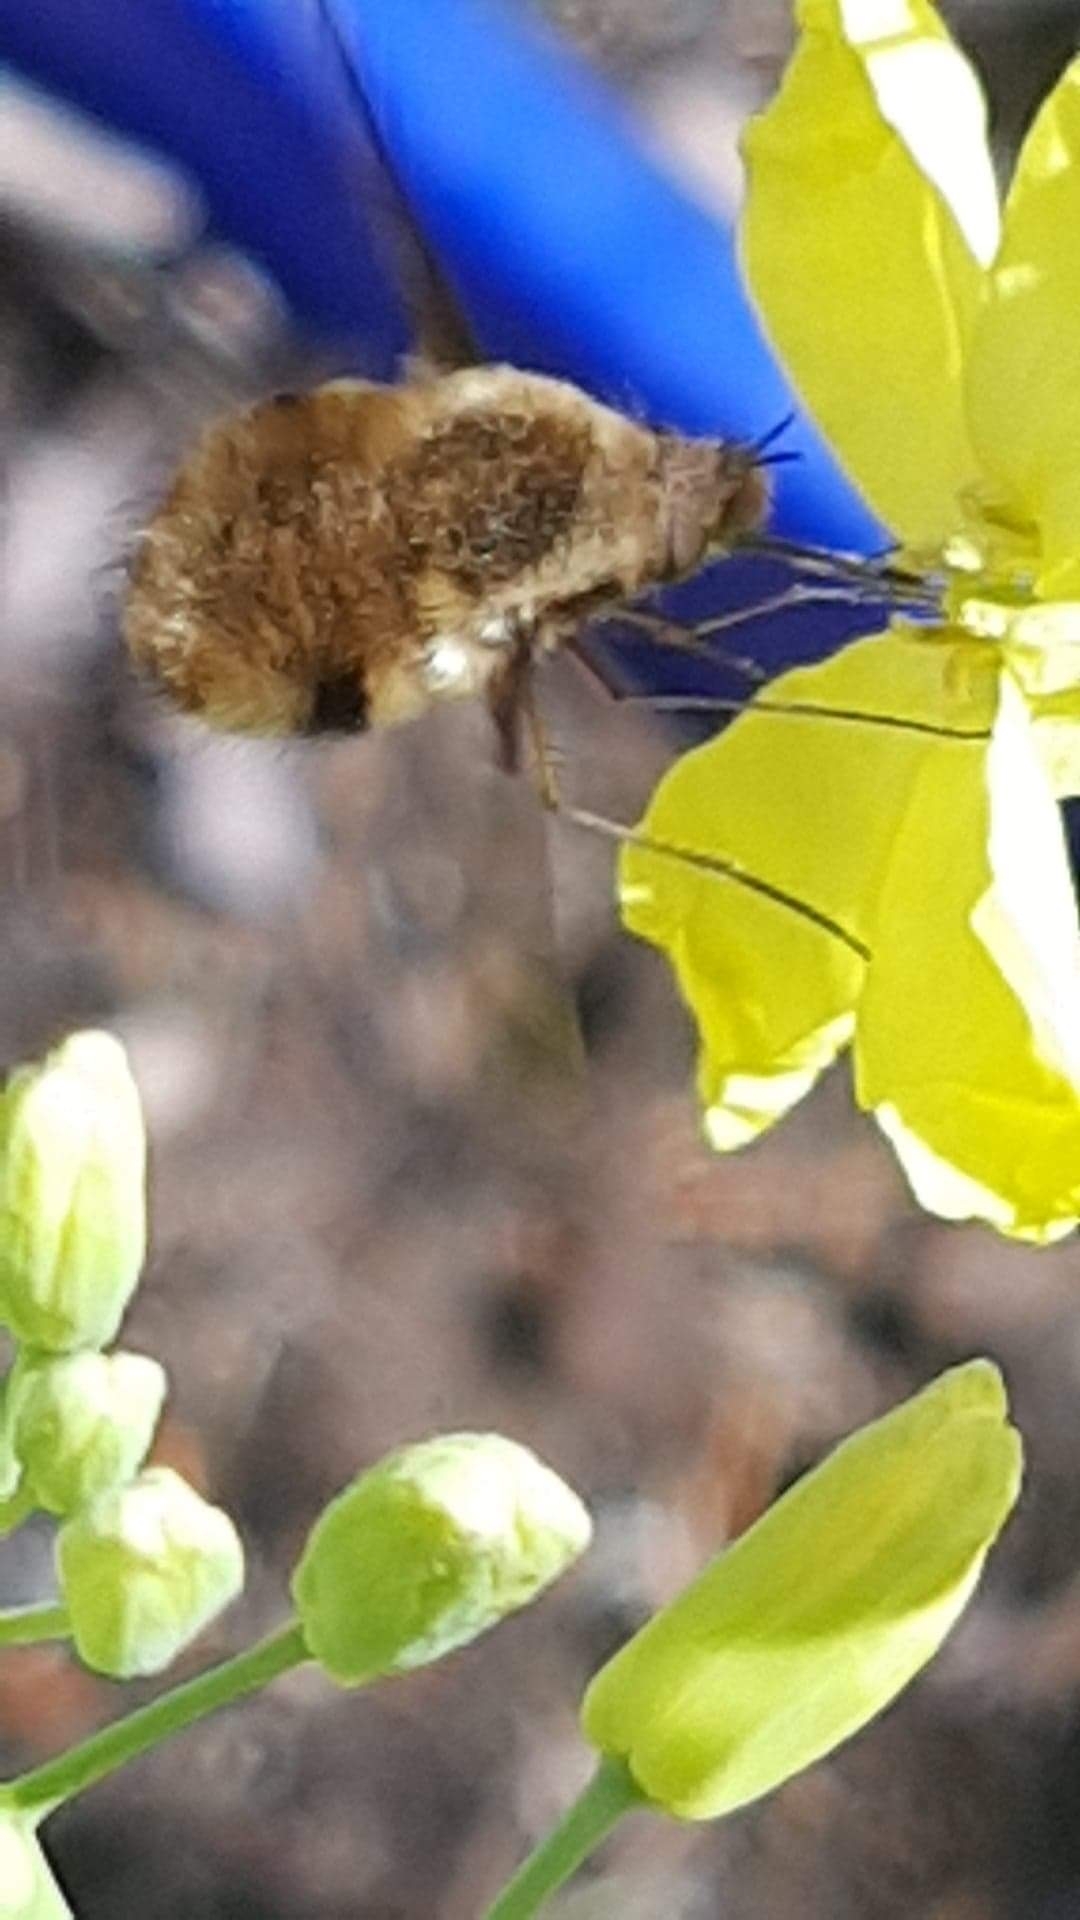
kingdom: Animalia
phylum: Arthropoda
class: Insecta
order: Diptera
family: Bombyliidae
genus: Bombylius
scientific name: Bombylius major
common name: Bee fly
